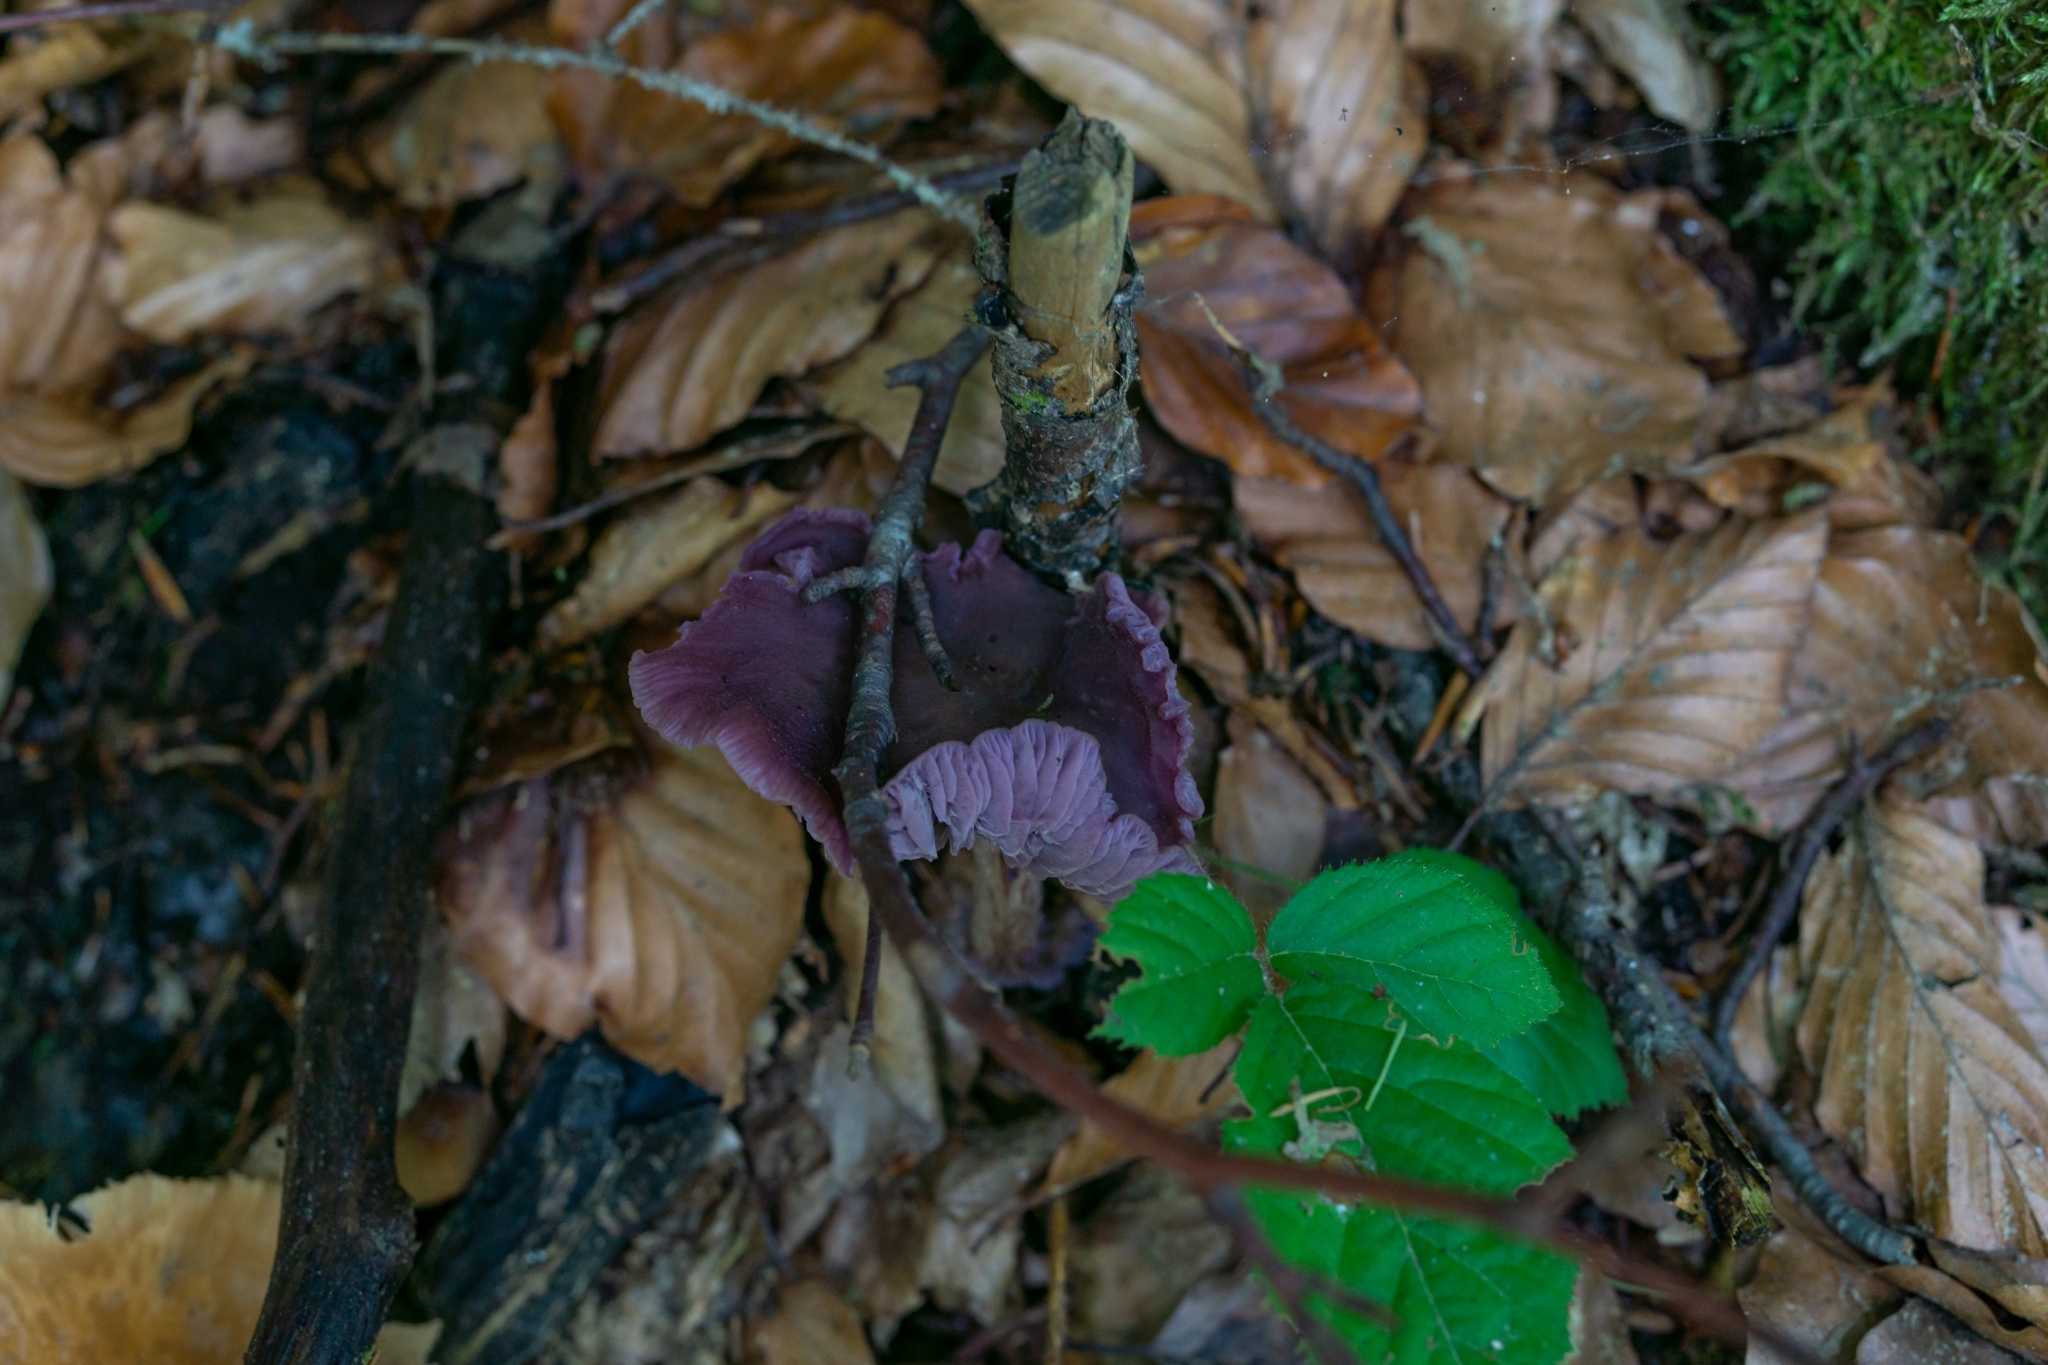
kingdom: Fungi
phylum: Basidiomycota
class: Agaricomycetes
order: Agaricales
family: Hydnangiaceae
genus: Laccaria
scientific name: Laccaria amethystina
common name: Amethyst deceiver
